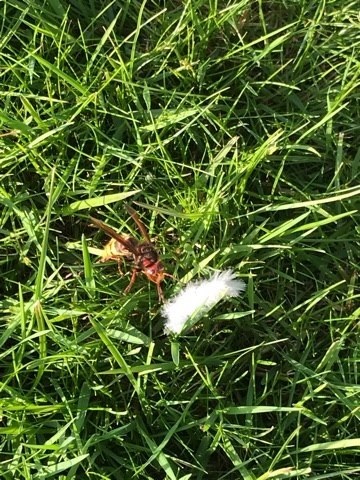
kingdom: Animalia
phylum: Arthropoda
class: Insecta
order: Hymenoptera
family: Vespidae
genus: Vespa
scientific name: Vespa crabro
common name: Hornet
